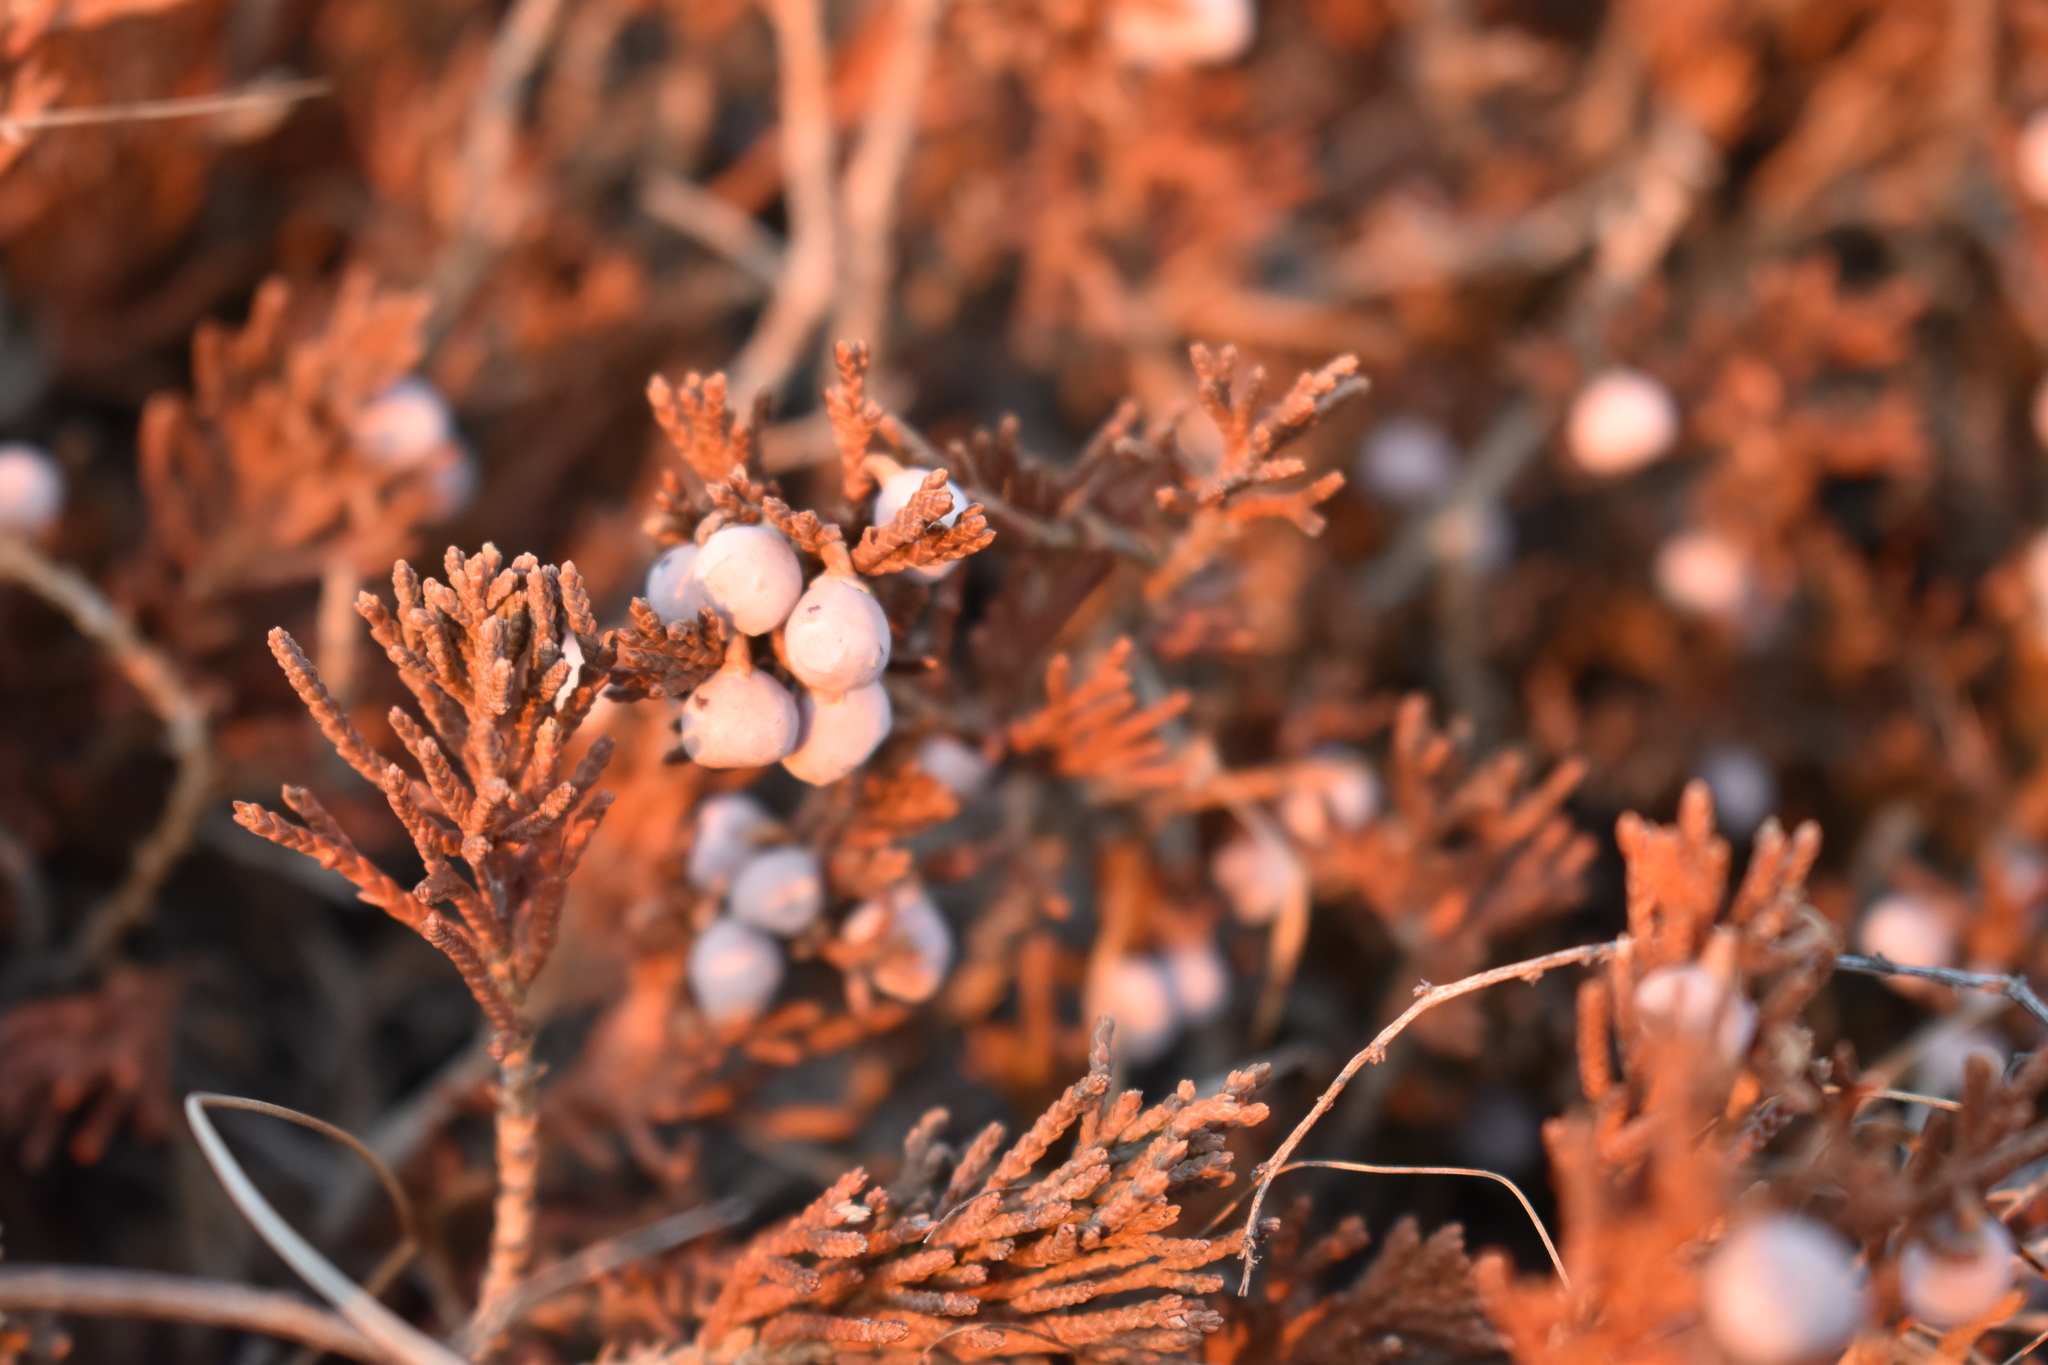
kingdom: Plantae
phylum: Tracheophyta
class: Pinopsida
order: Pinales
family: Cupressaceae
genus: Juniperus
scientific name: Juniperus horizontalis
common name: Creeping juniper
